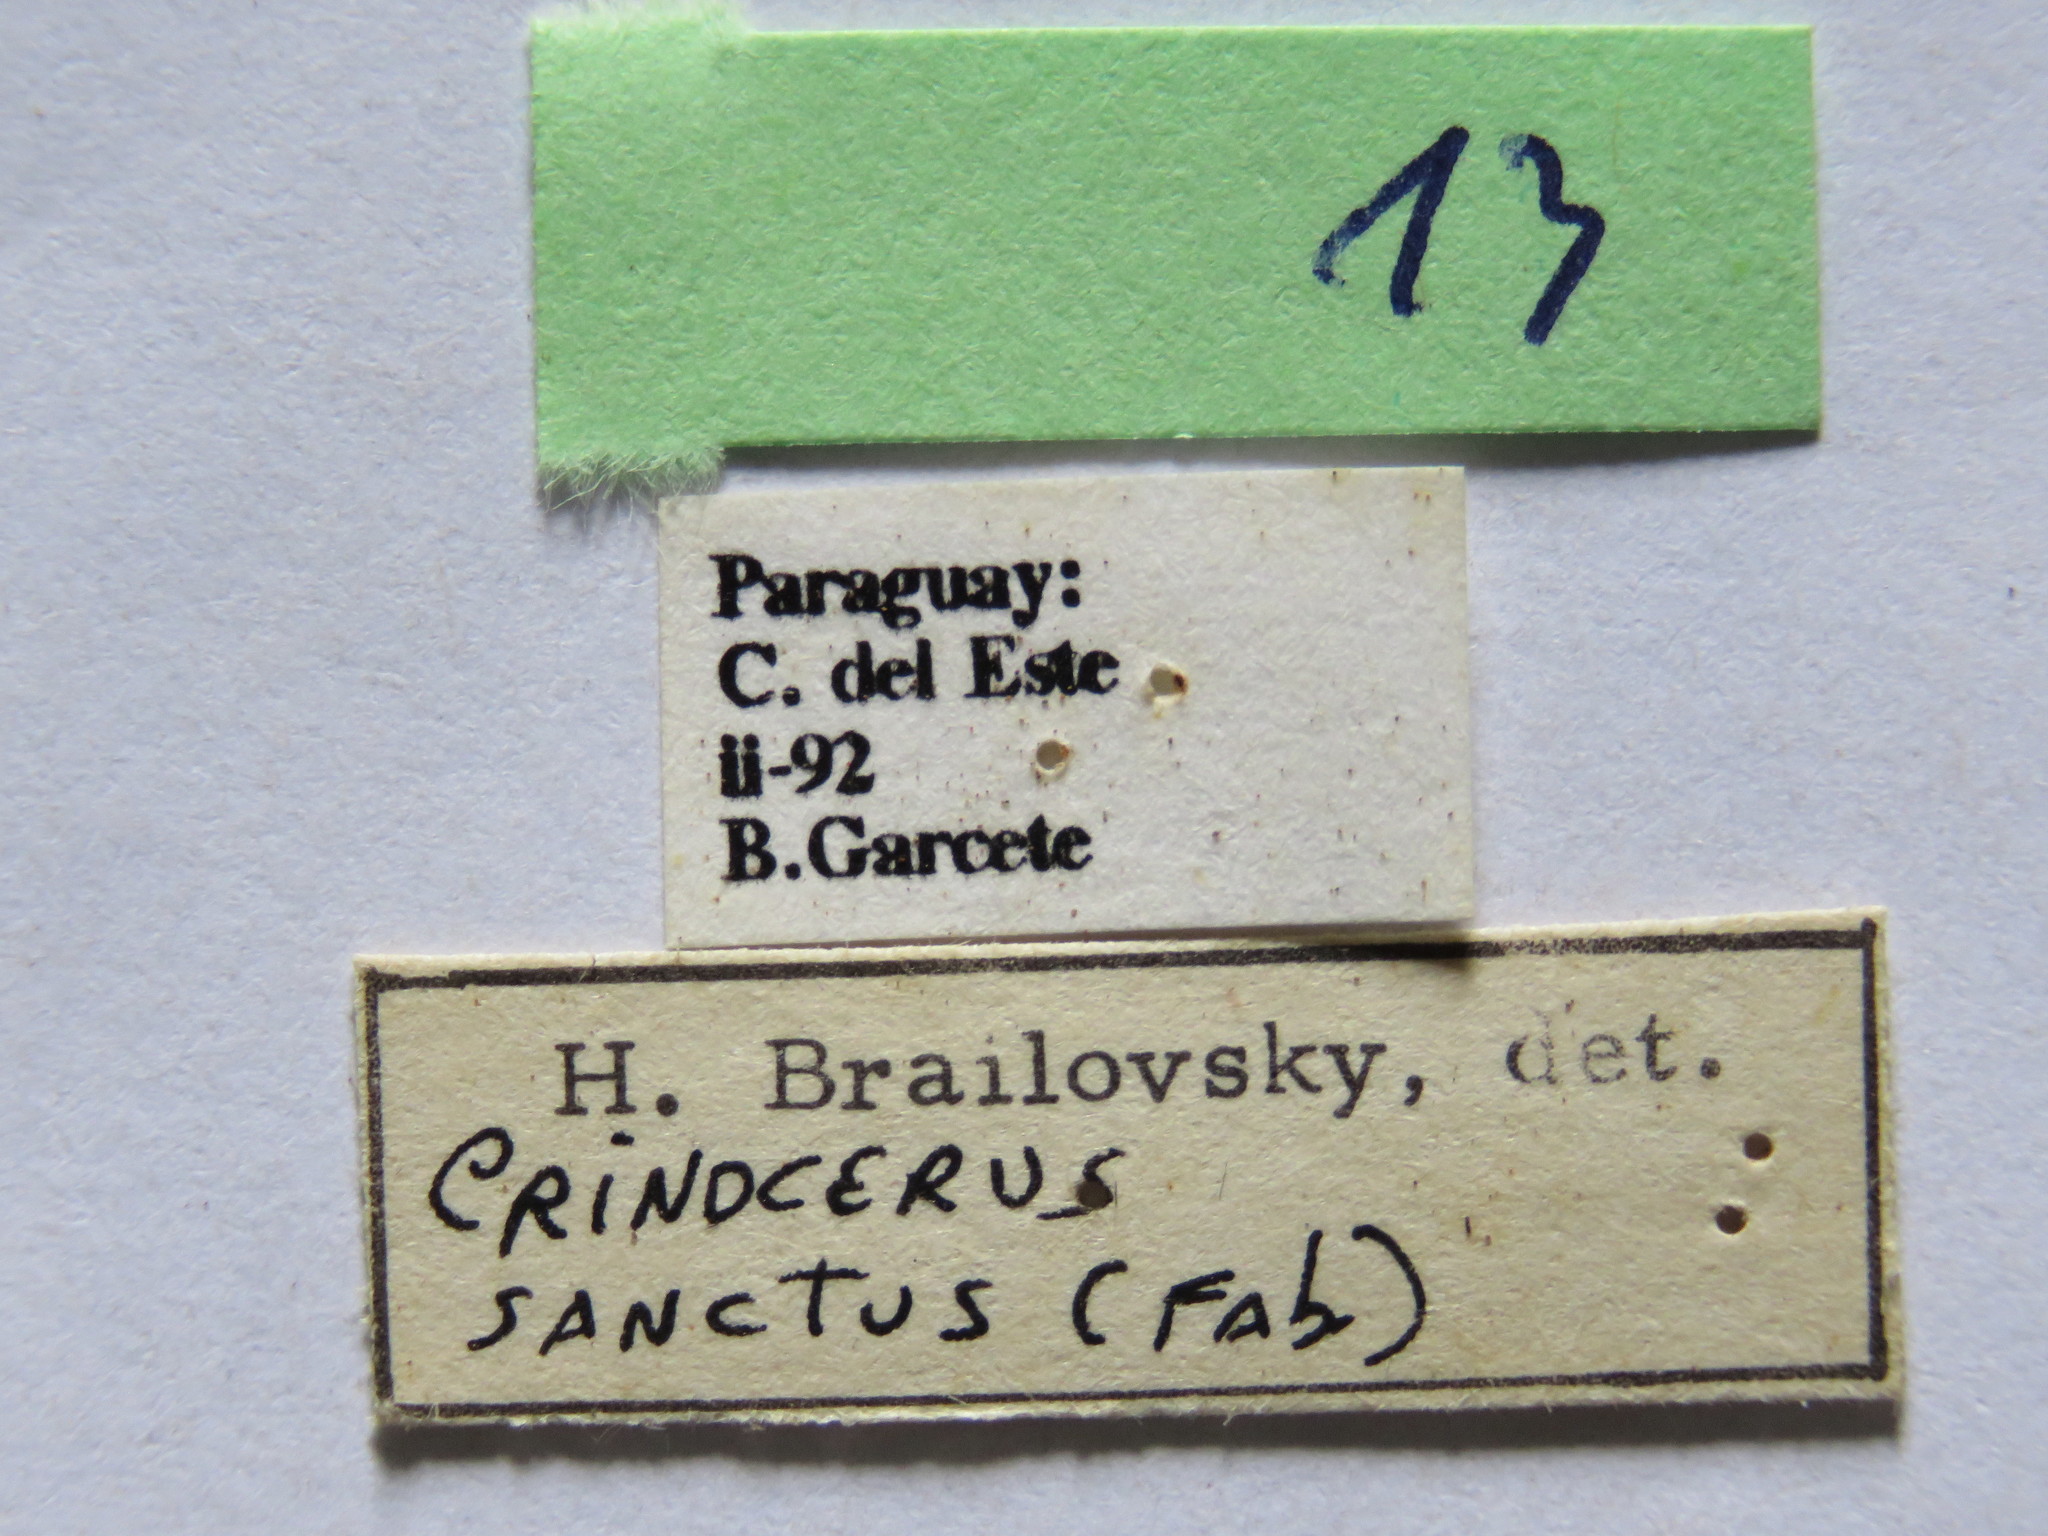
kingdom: Animalia
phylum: Arthropoda
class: Insecta
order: Hemiptera
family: Coreidae
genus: Crinocerus
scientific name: Crinocerus sanctus
